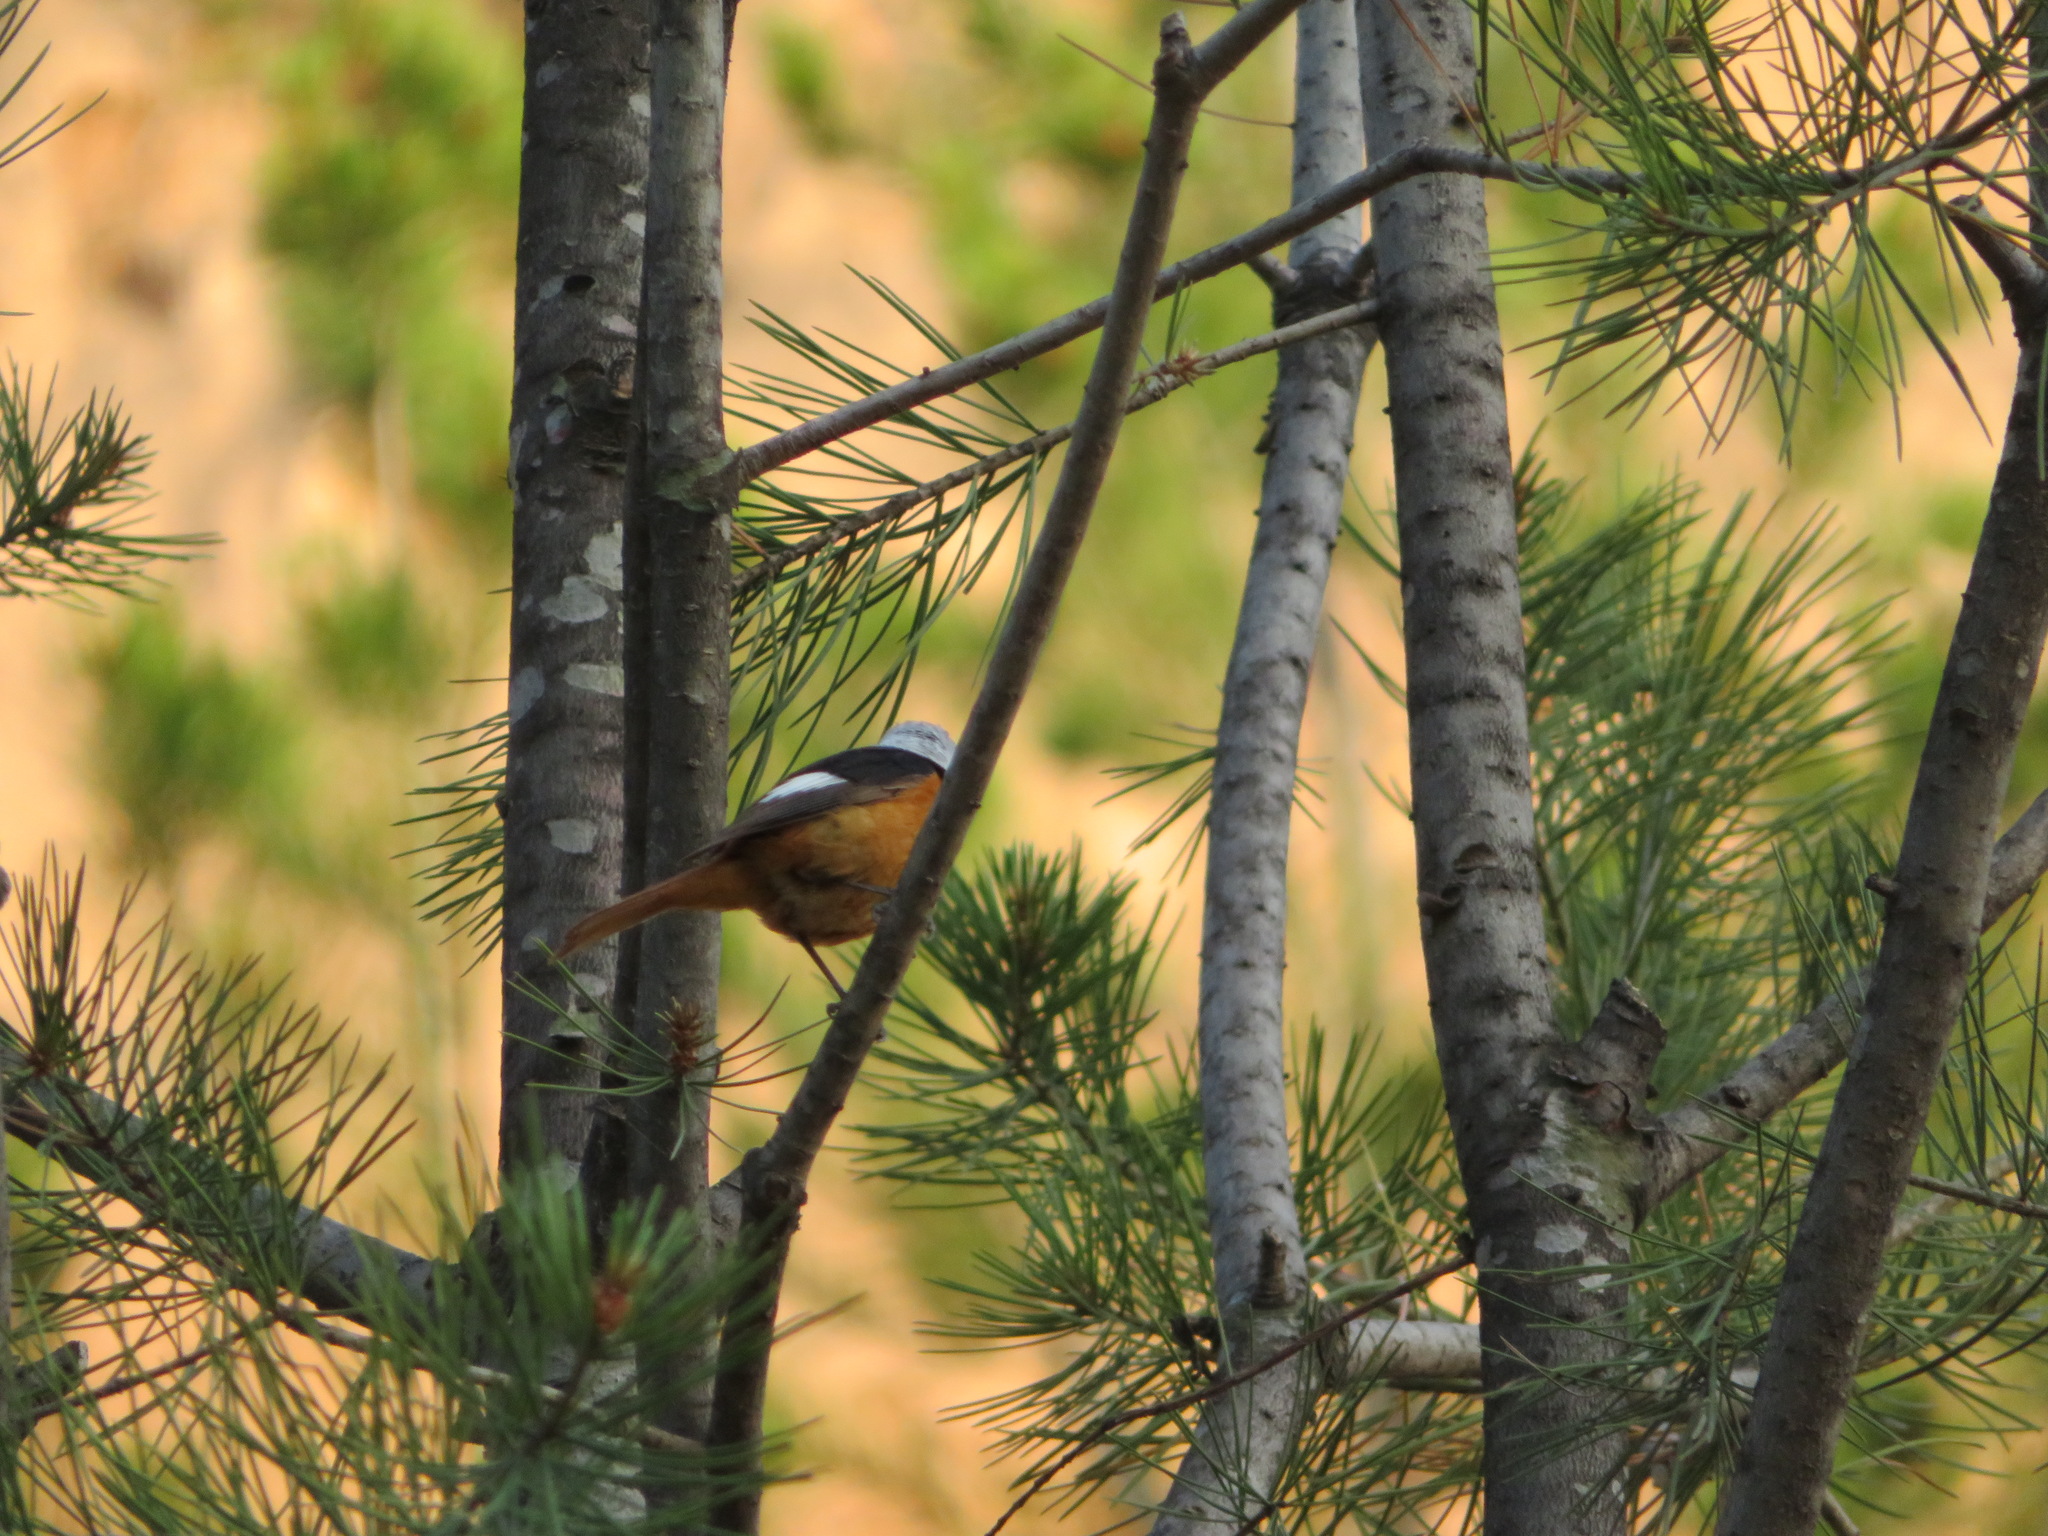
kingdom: Animalia
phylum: Chordata
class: Aves
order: Passeriformes
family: Muscicapidae
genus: Phoenicurus
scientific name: Phoenicurus auroreus
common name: Daurian redstart
